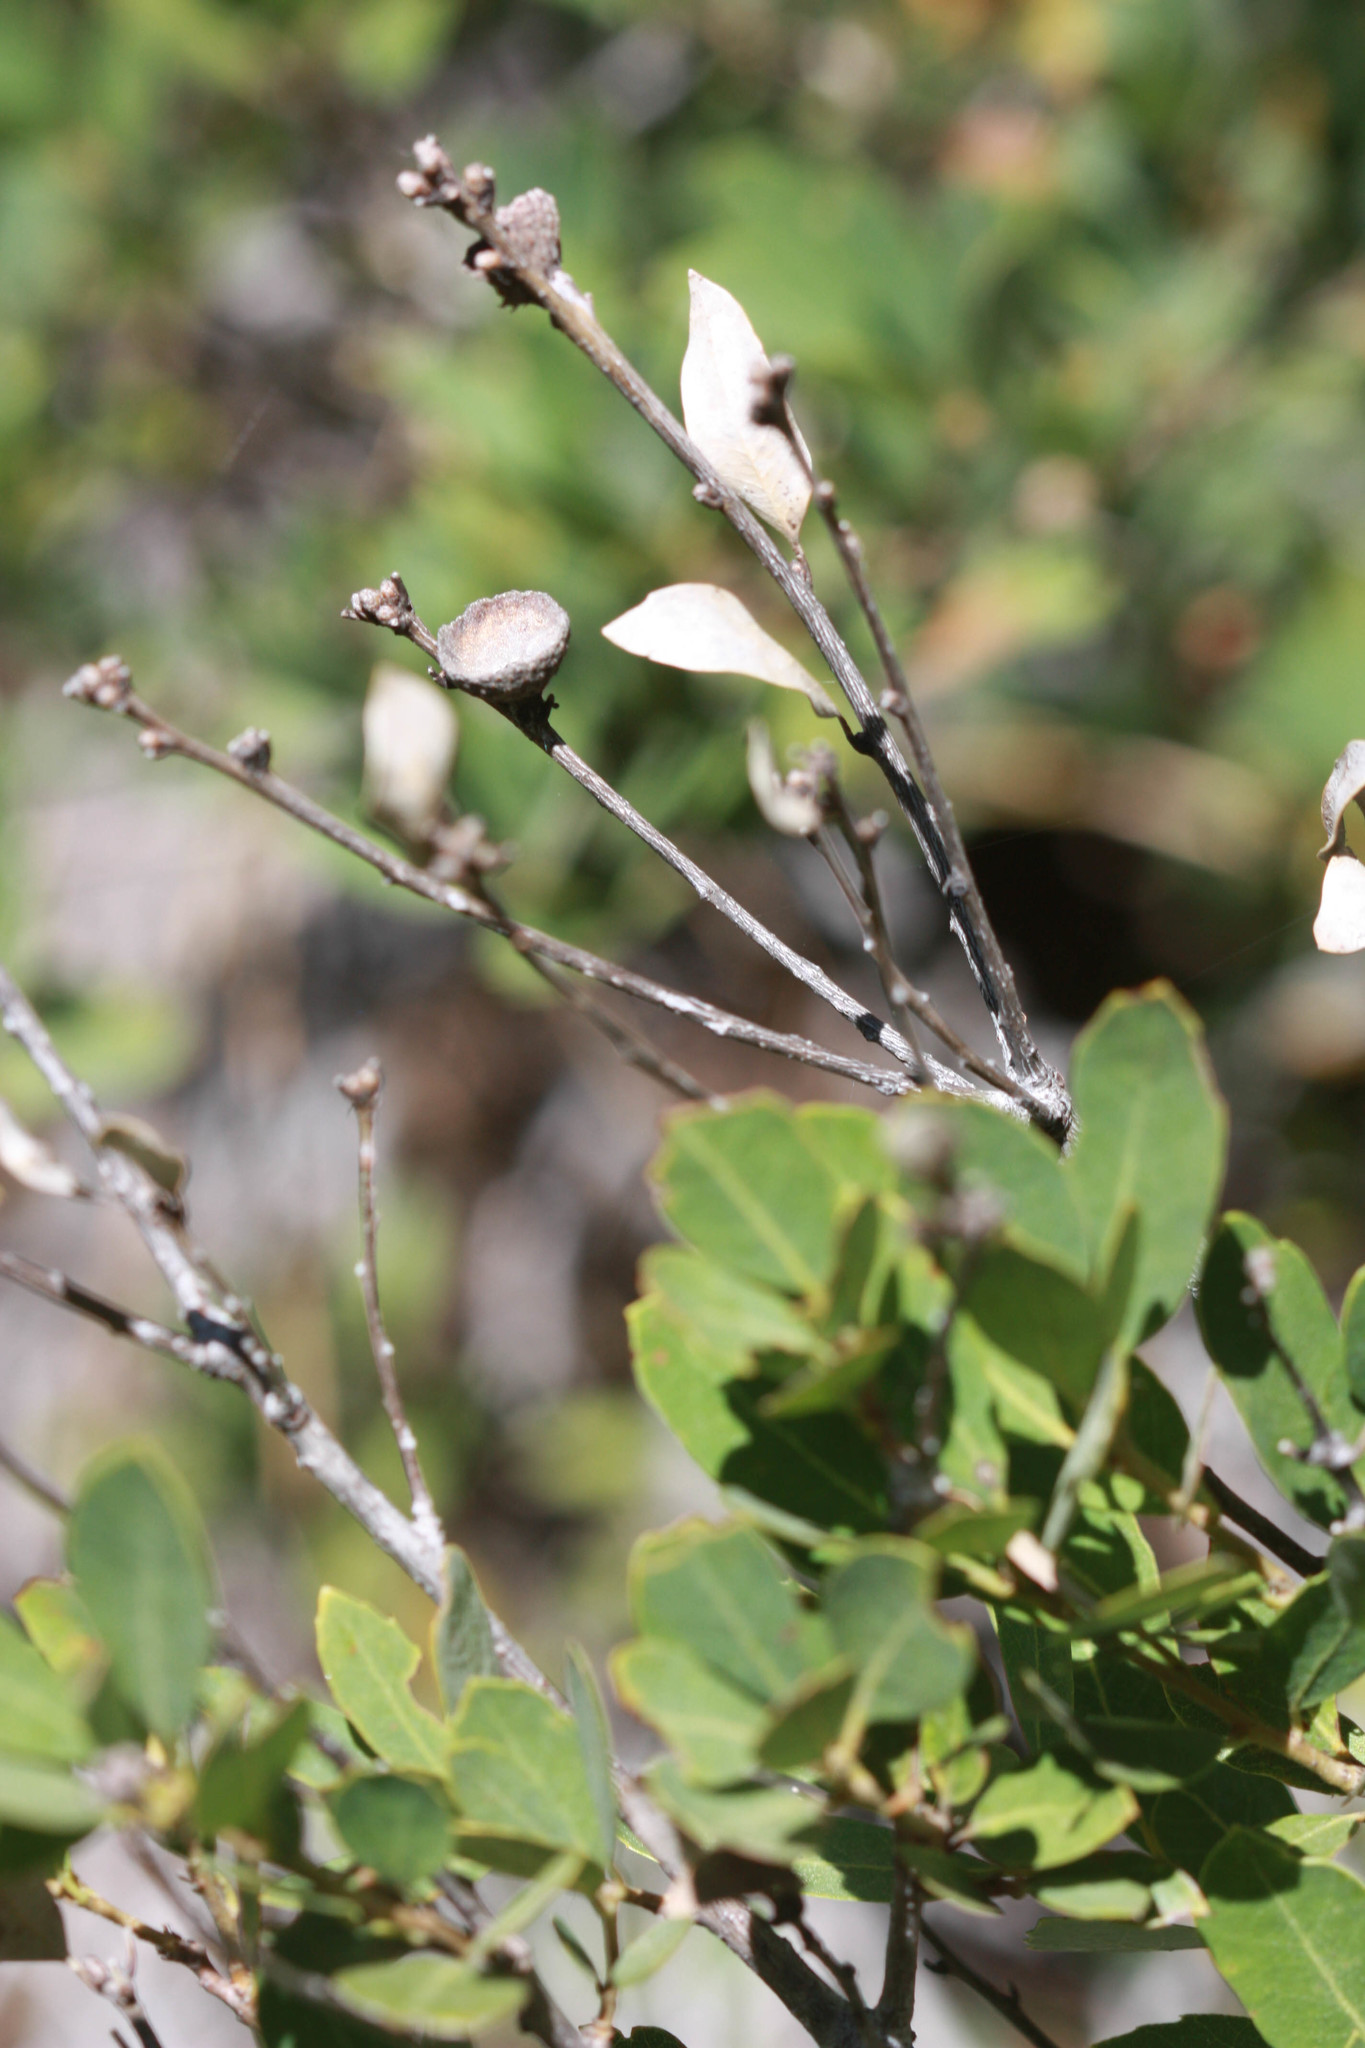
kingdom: Plantae
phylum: Tracheophyta
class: Magnoliopsida
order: Fagales
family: Fagaceae
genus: Quercus
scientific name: Quercus vacciniifolia
